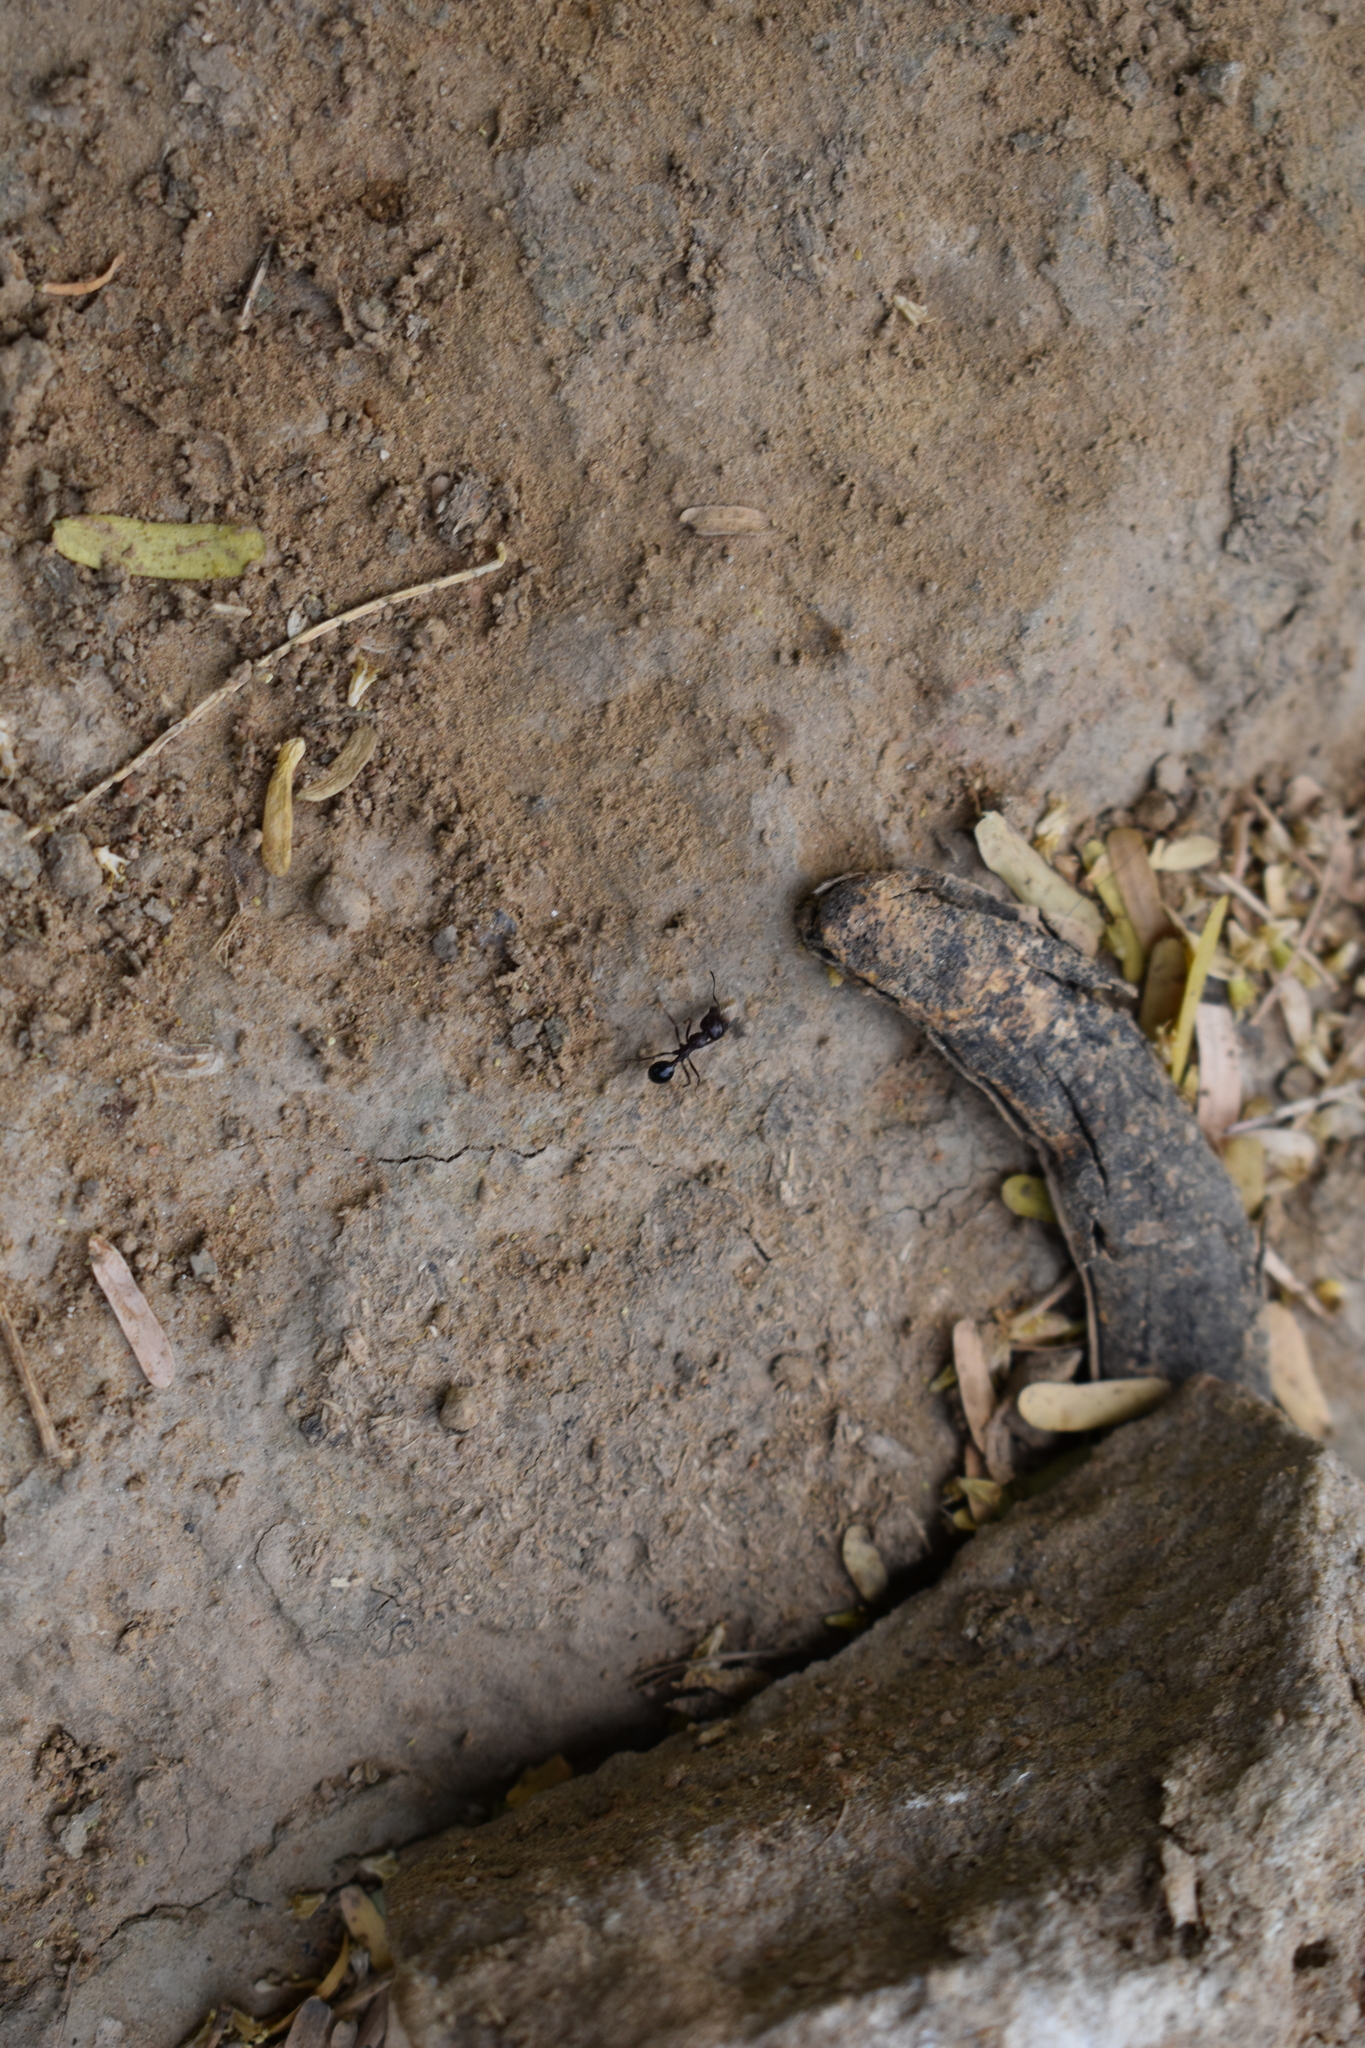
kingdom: Animalia
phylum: Arthropoda
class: Insecta
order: Hymenoptera
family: Formicidae
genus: Camponotus
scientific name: Camponotus compressus
